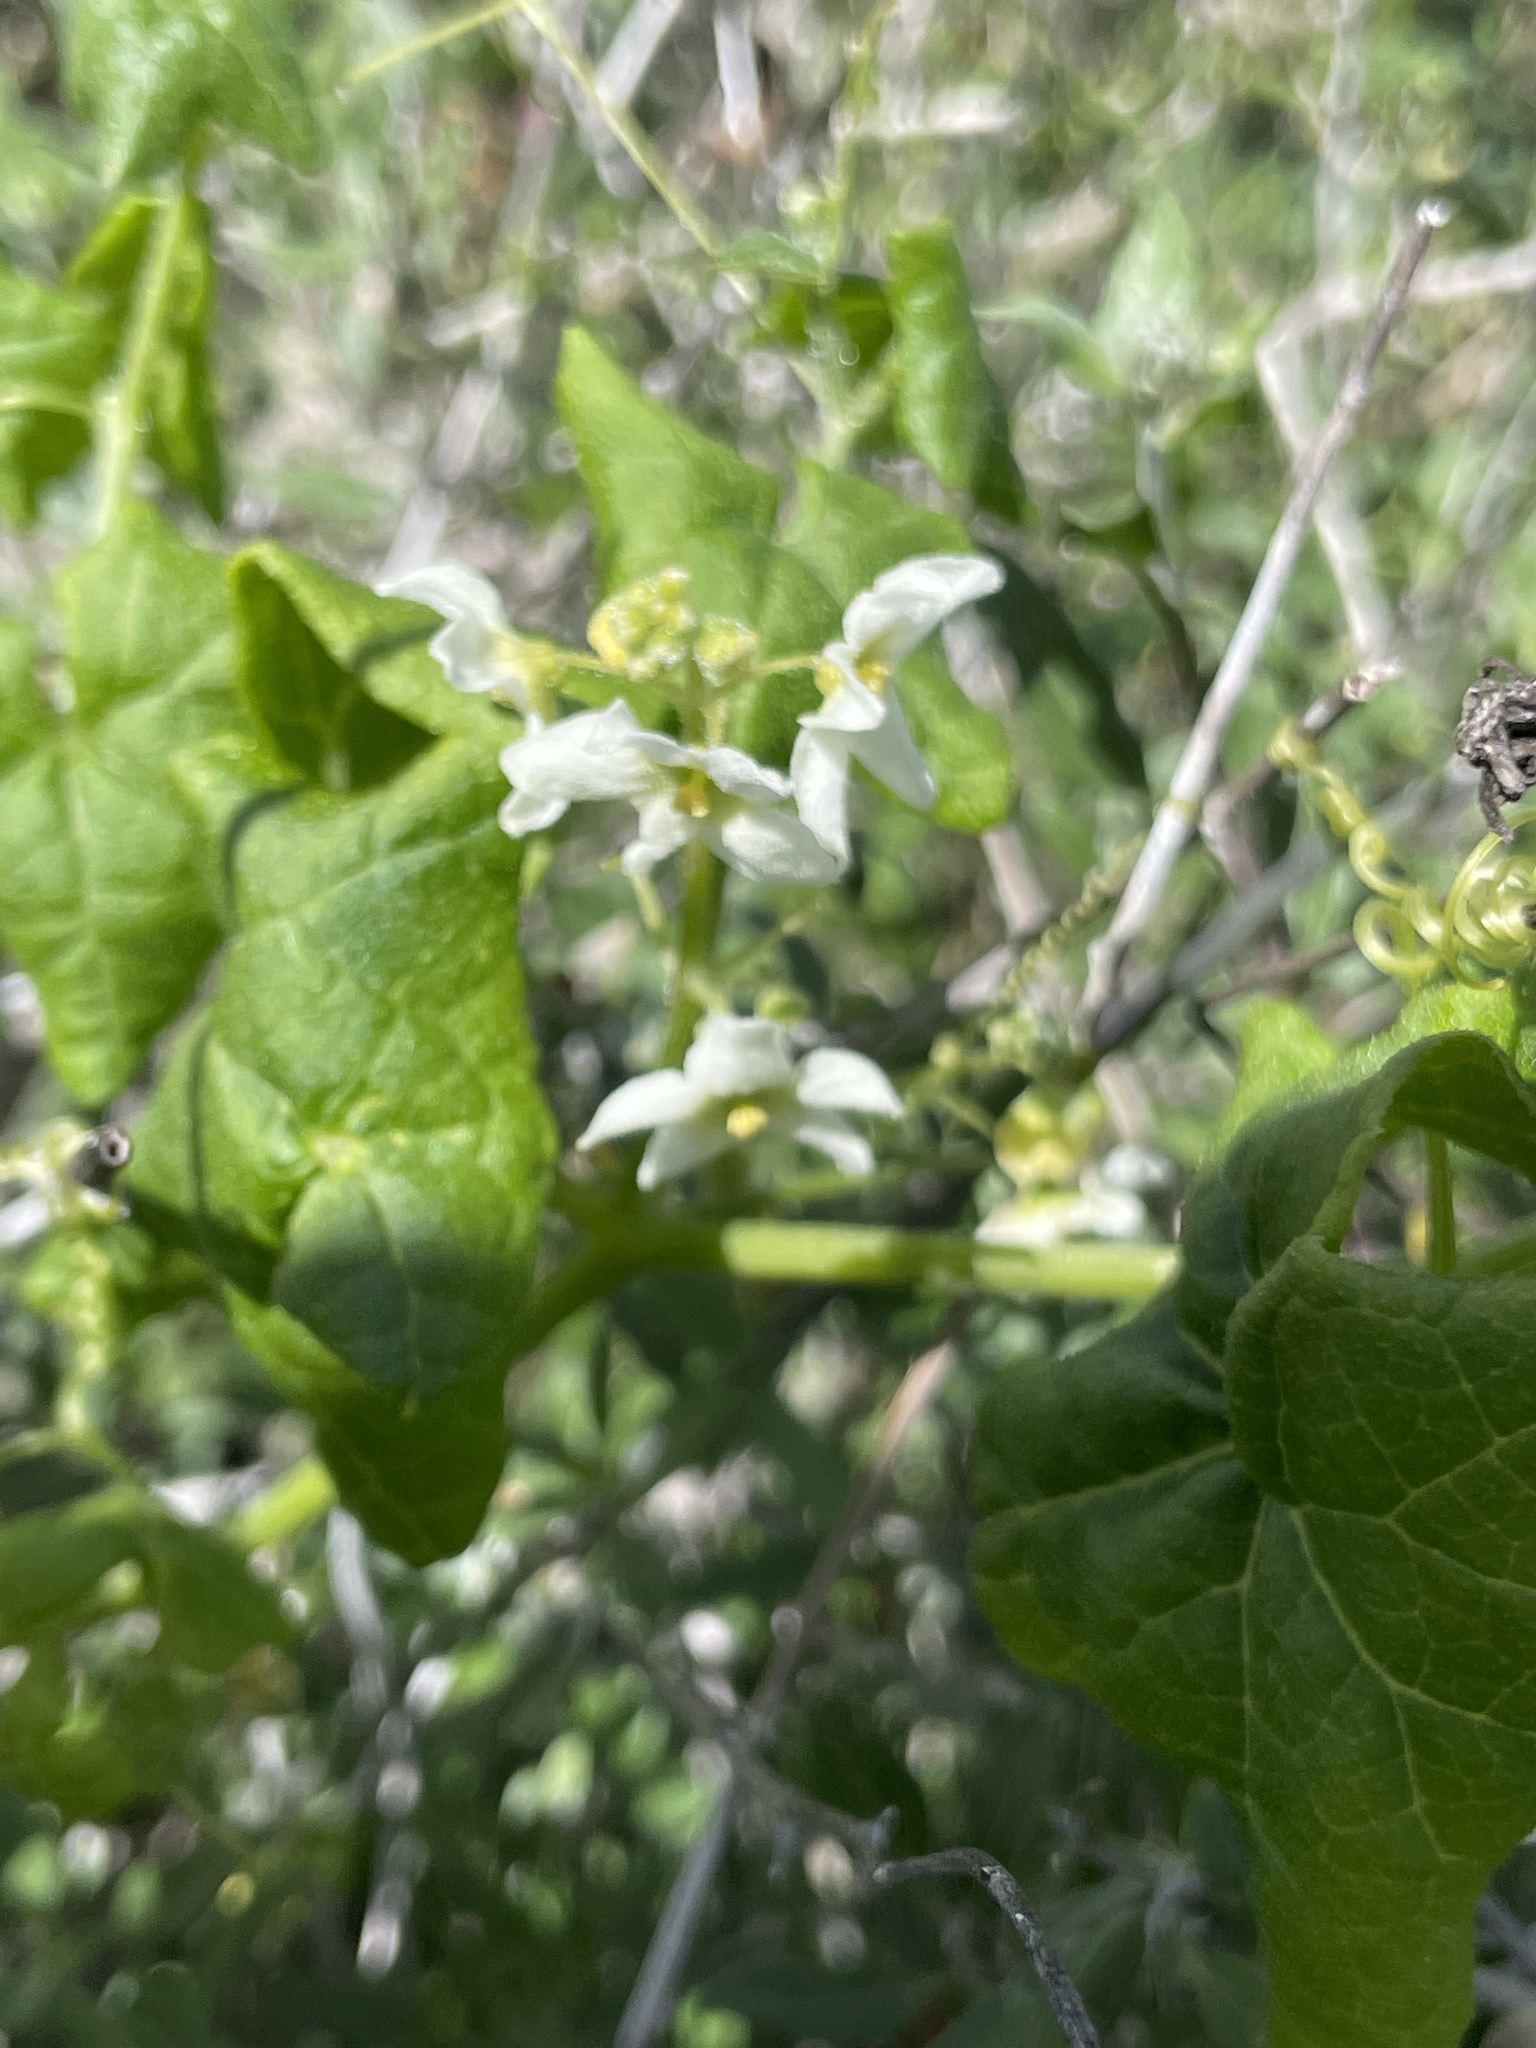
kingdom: Plantae
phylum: Tracheophyta
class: Magnoliopsida
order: Cucurbitales
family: Cucurbitaceae
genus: Marah
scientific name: Marah macrocarpa
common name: Cucamonga manroot
